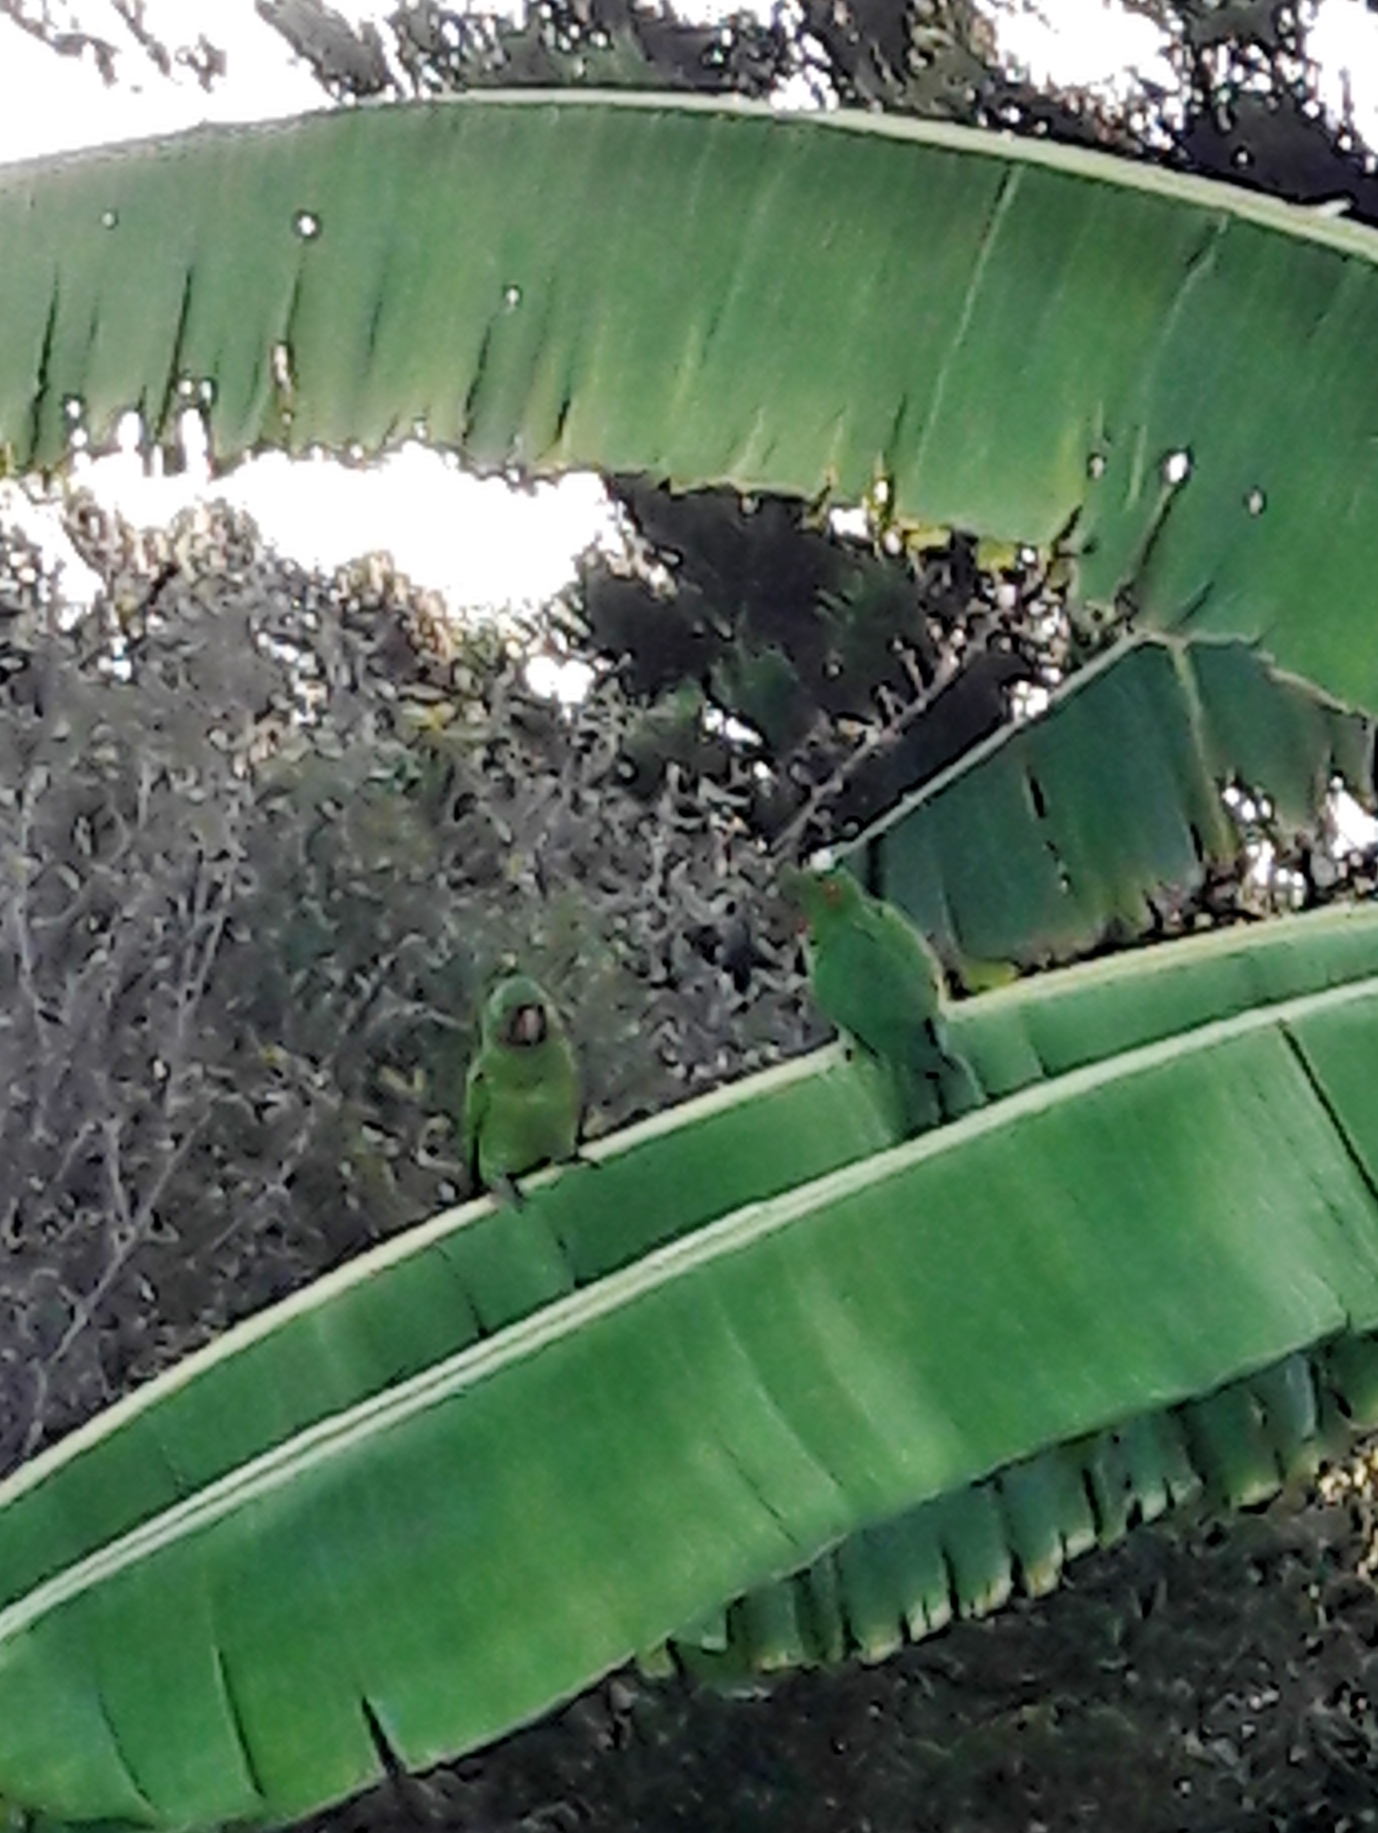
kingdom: Animalia
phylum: Chordata
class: Aves
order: Psittaciformes
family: Psittacidae
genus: Aratinga
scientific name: Aratinga leucophthalma
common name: White-eyed parakeet
